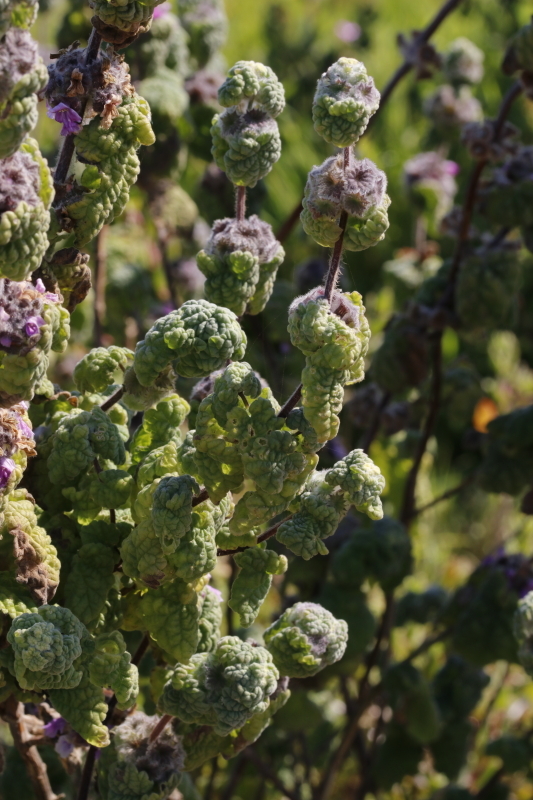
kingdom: Plantae
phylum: Tracheophyta
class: Magnoliopsida
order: Lamiales
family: Lamiaceae
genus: Pseudodictamnus
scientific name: Pseudodictamnus africanus
